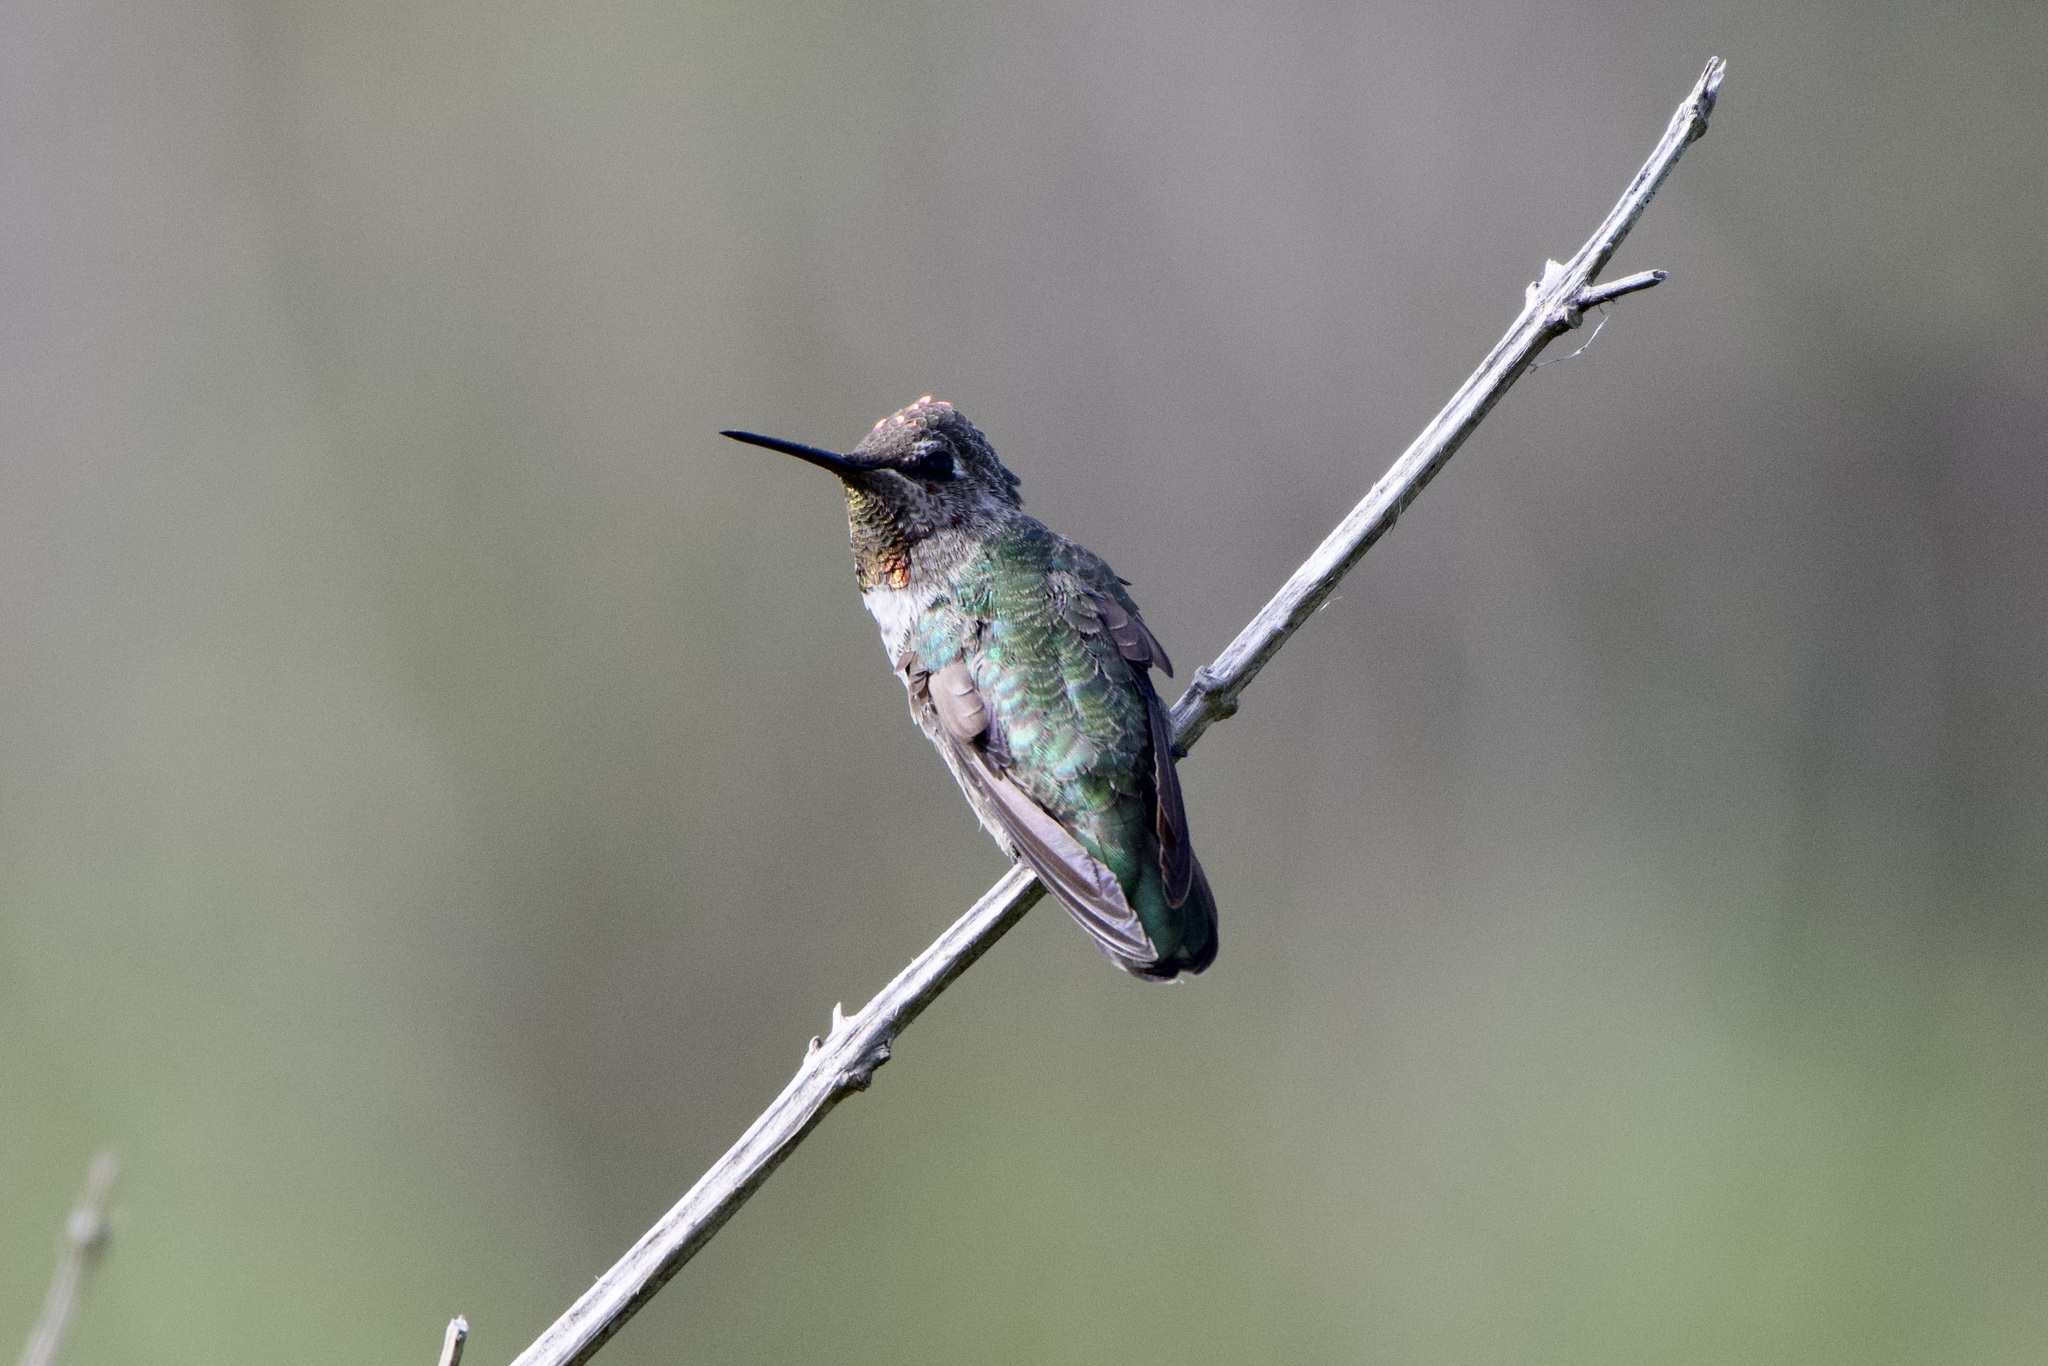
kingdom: Animalia
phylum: Chordata
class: Aves
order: Apodiformes
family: Trochilidae
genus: Calypte
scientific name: Calypte anna
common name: Anna's hummingbird
